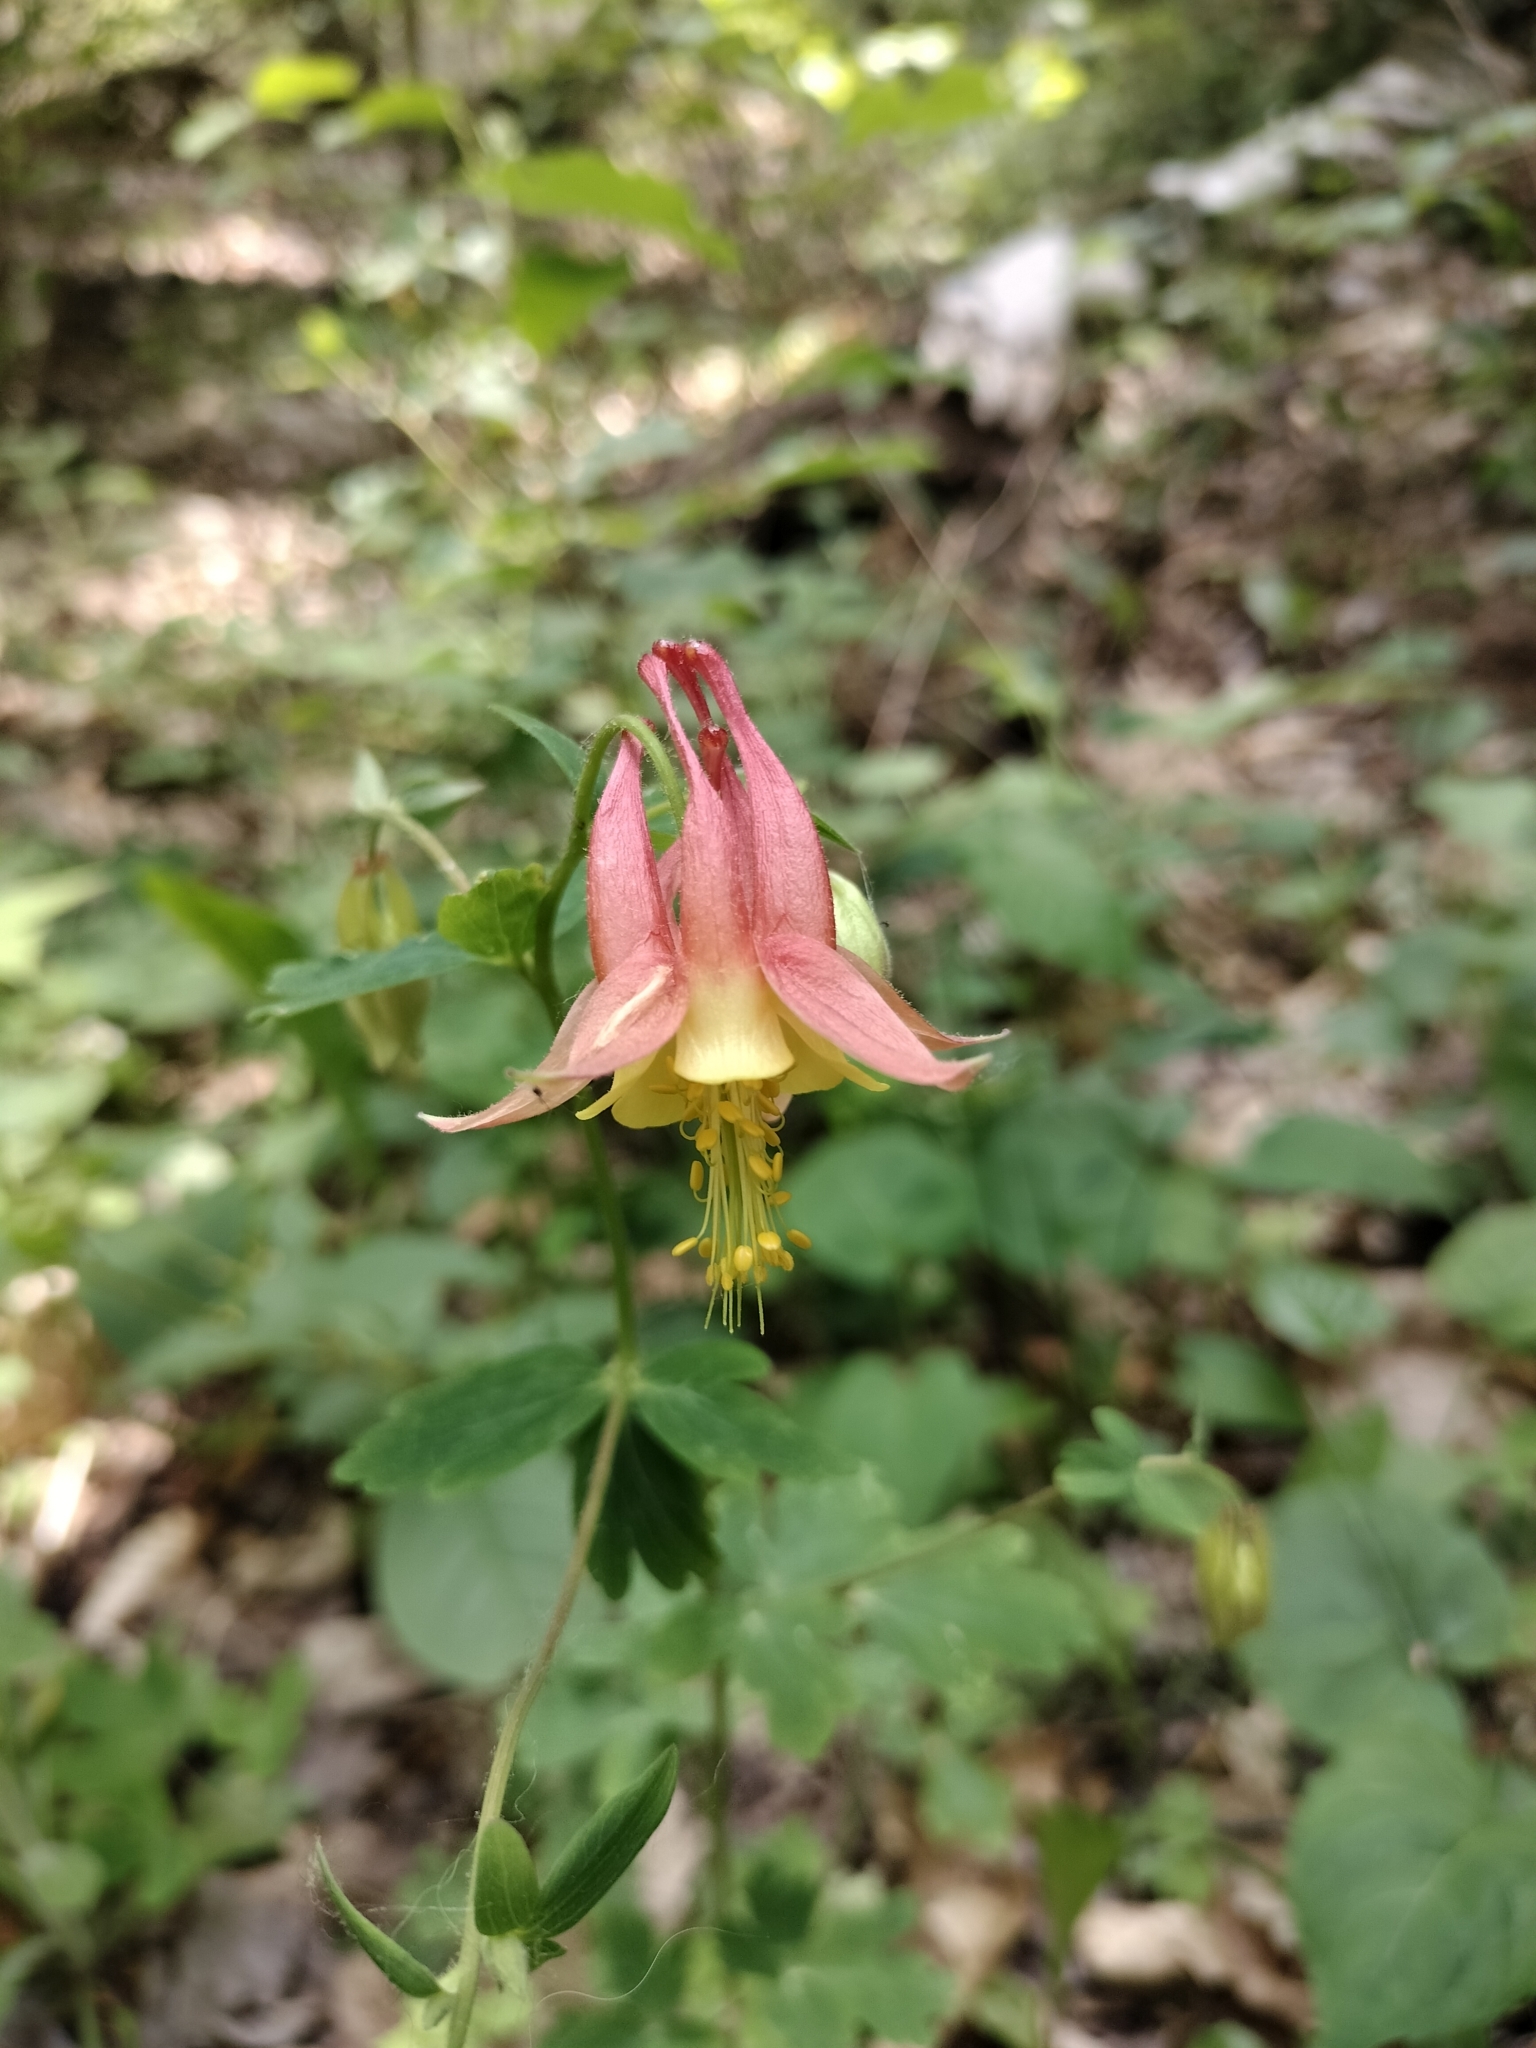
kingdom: Plantae
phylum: Tracheophyta
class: Magnoliopsida
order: Ranunculales
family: Ranunculaceae
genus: Aquilegia
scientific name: Aquilegia canadensis
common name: American columbine
